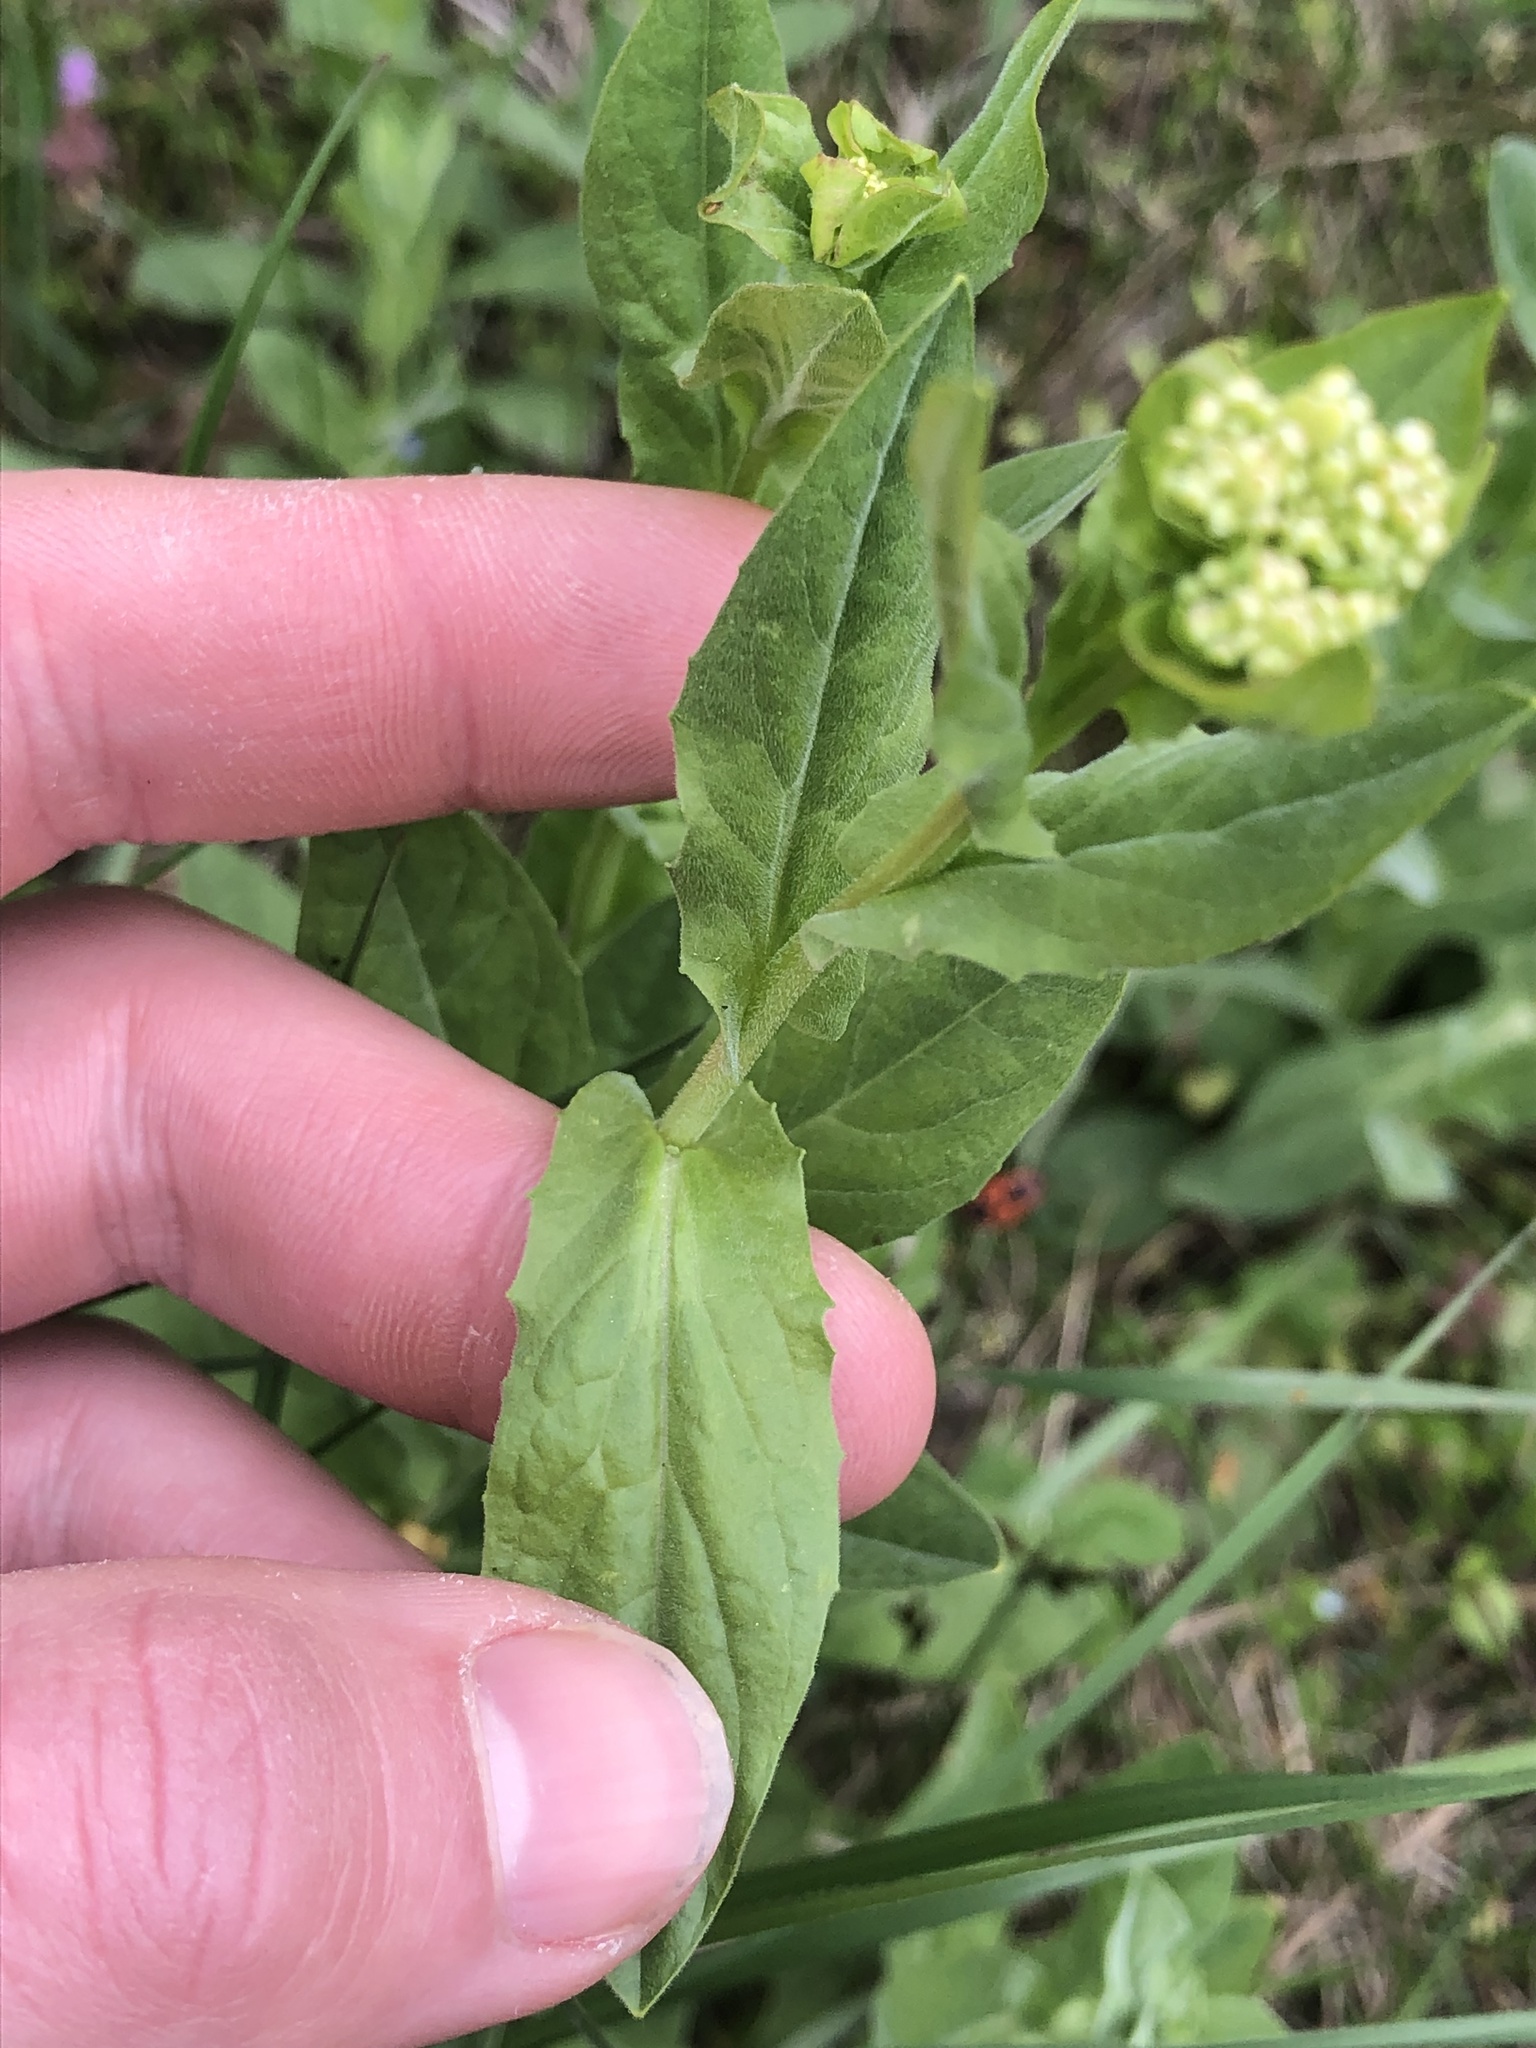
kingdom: Plantae
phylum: Tracheophyta
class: Magnoliopsida
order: Brassicales
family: Brassicaceae
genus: Lepidium
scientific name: Lepidium draba
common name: Hoary cress
